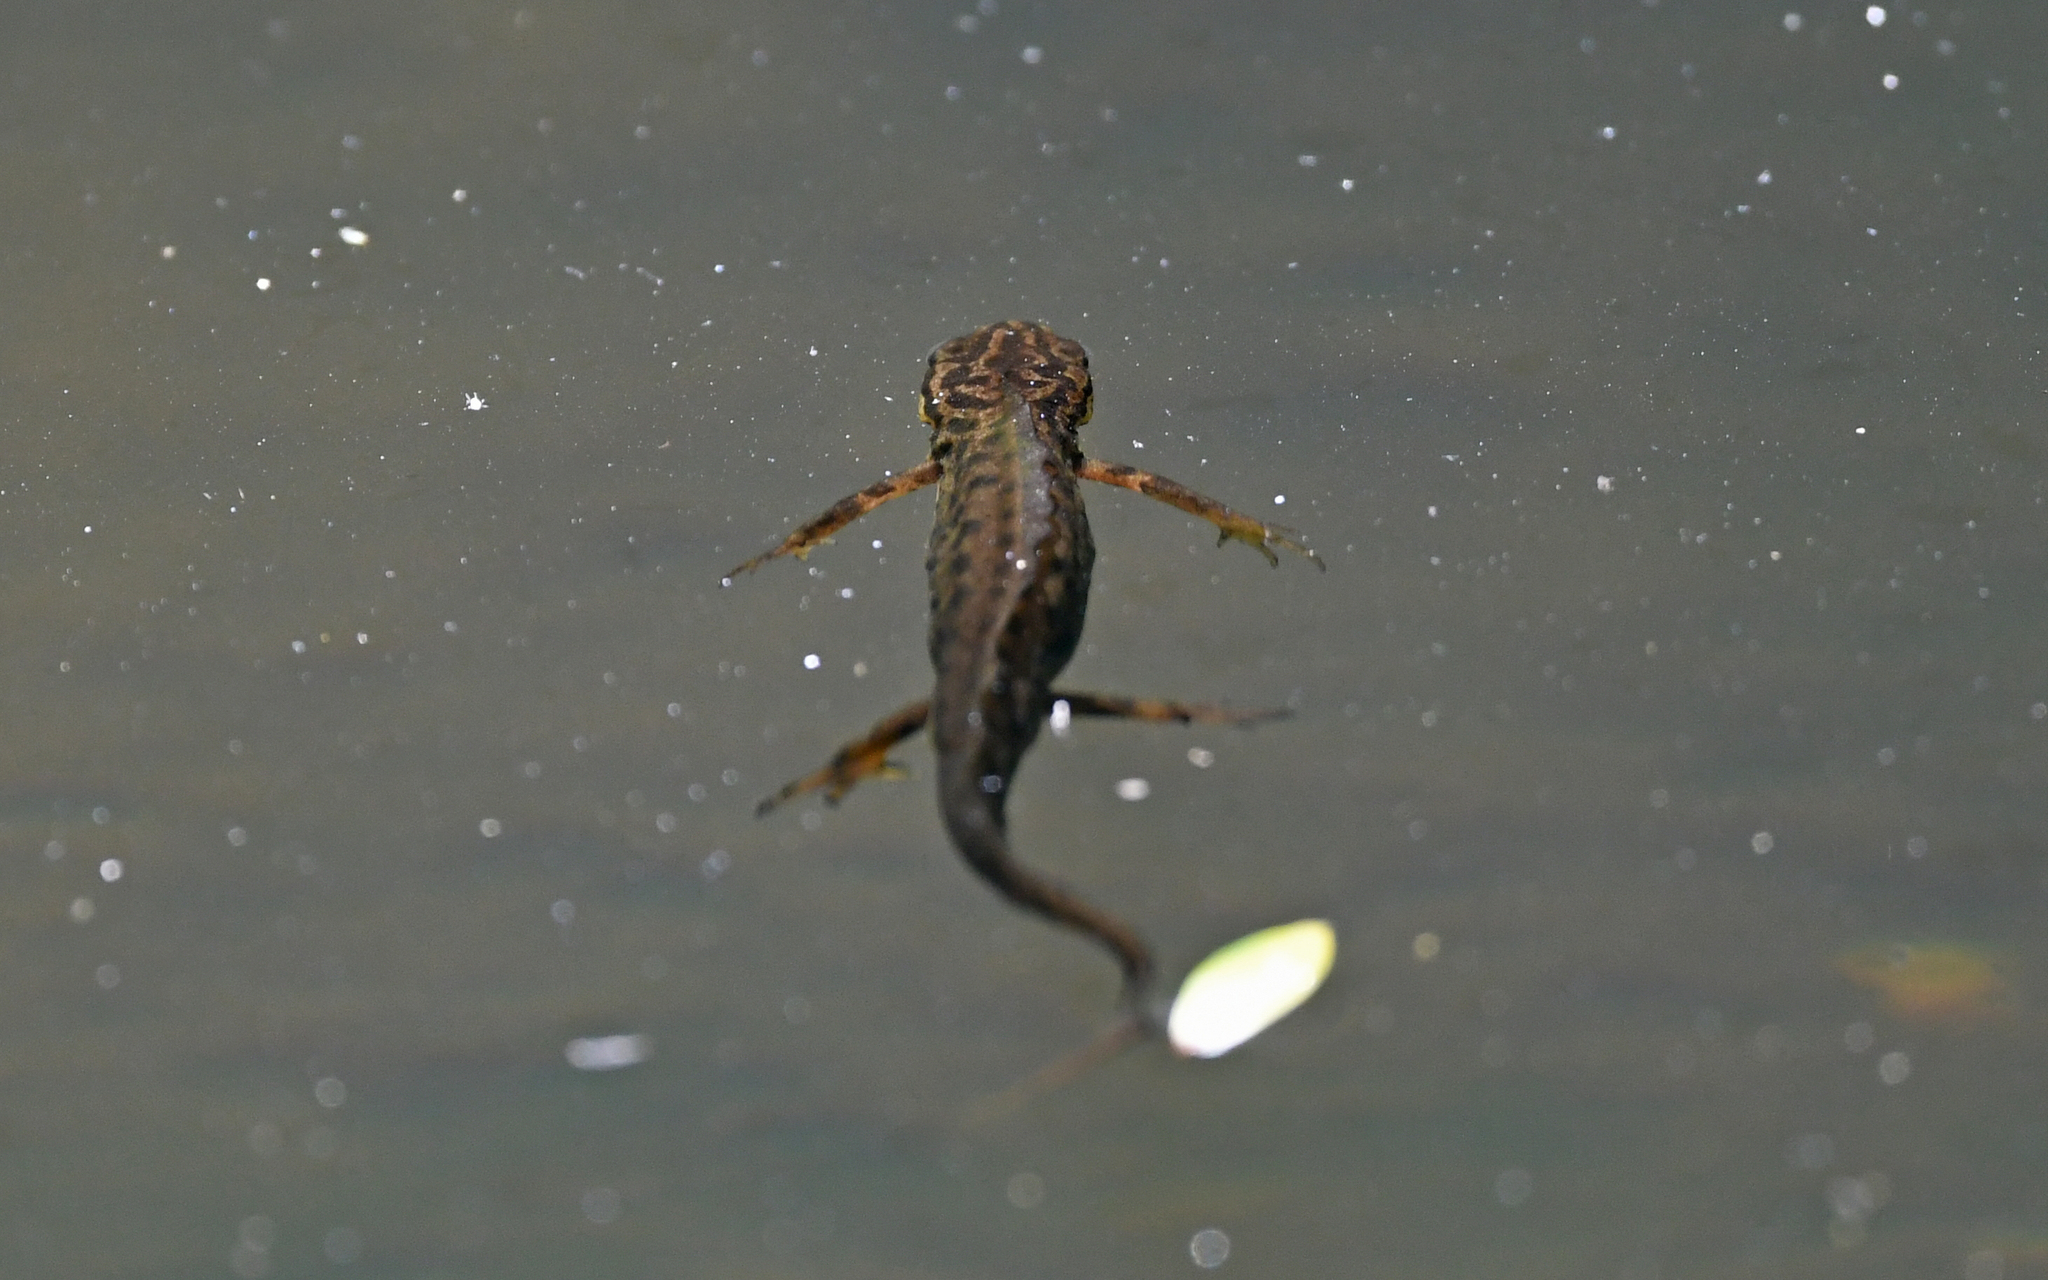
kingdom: Animalia
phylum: Chordata
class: Amphibia
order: Caudata
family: Salamandridae
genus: Lissotriton
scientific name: Lissotriton vulgaris
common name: Smooth newt
